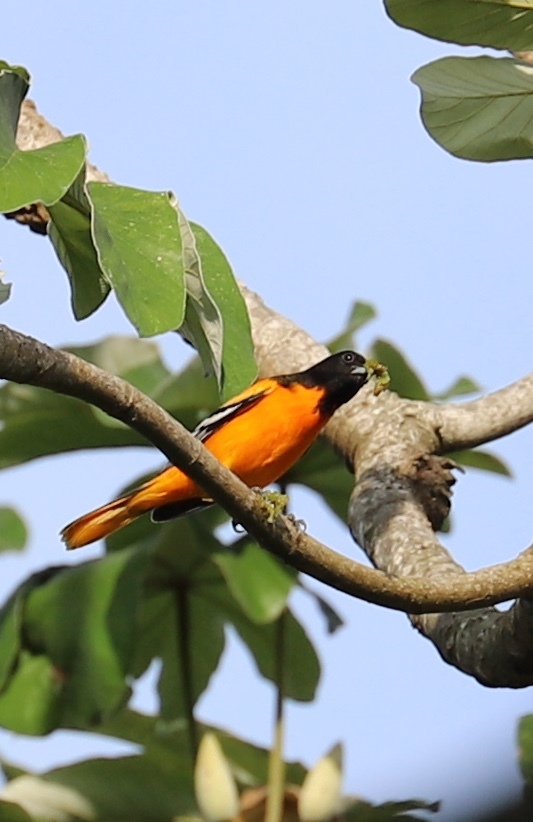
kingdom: Animalia
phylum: Chordata
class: Aves
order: Passeriformes
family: Icteridae
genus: Icterus
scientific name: Icterus galbula
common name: Baltimore oriole
